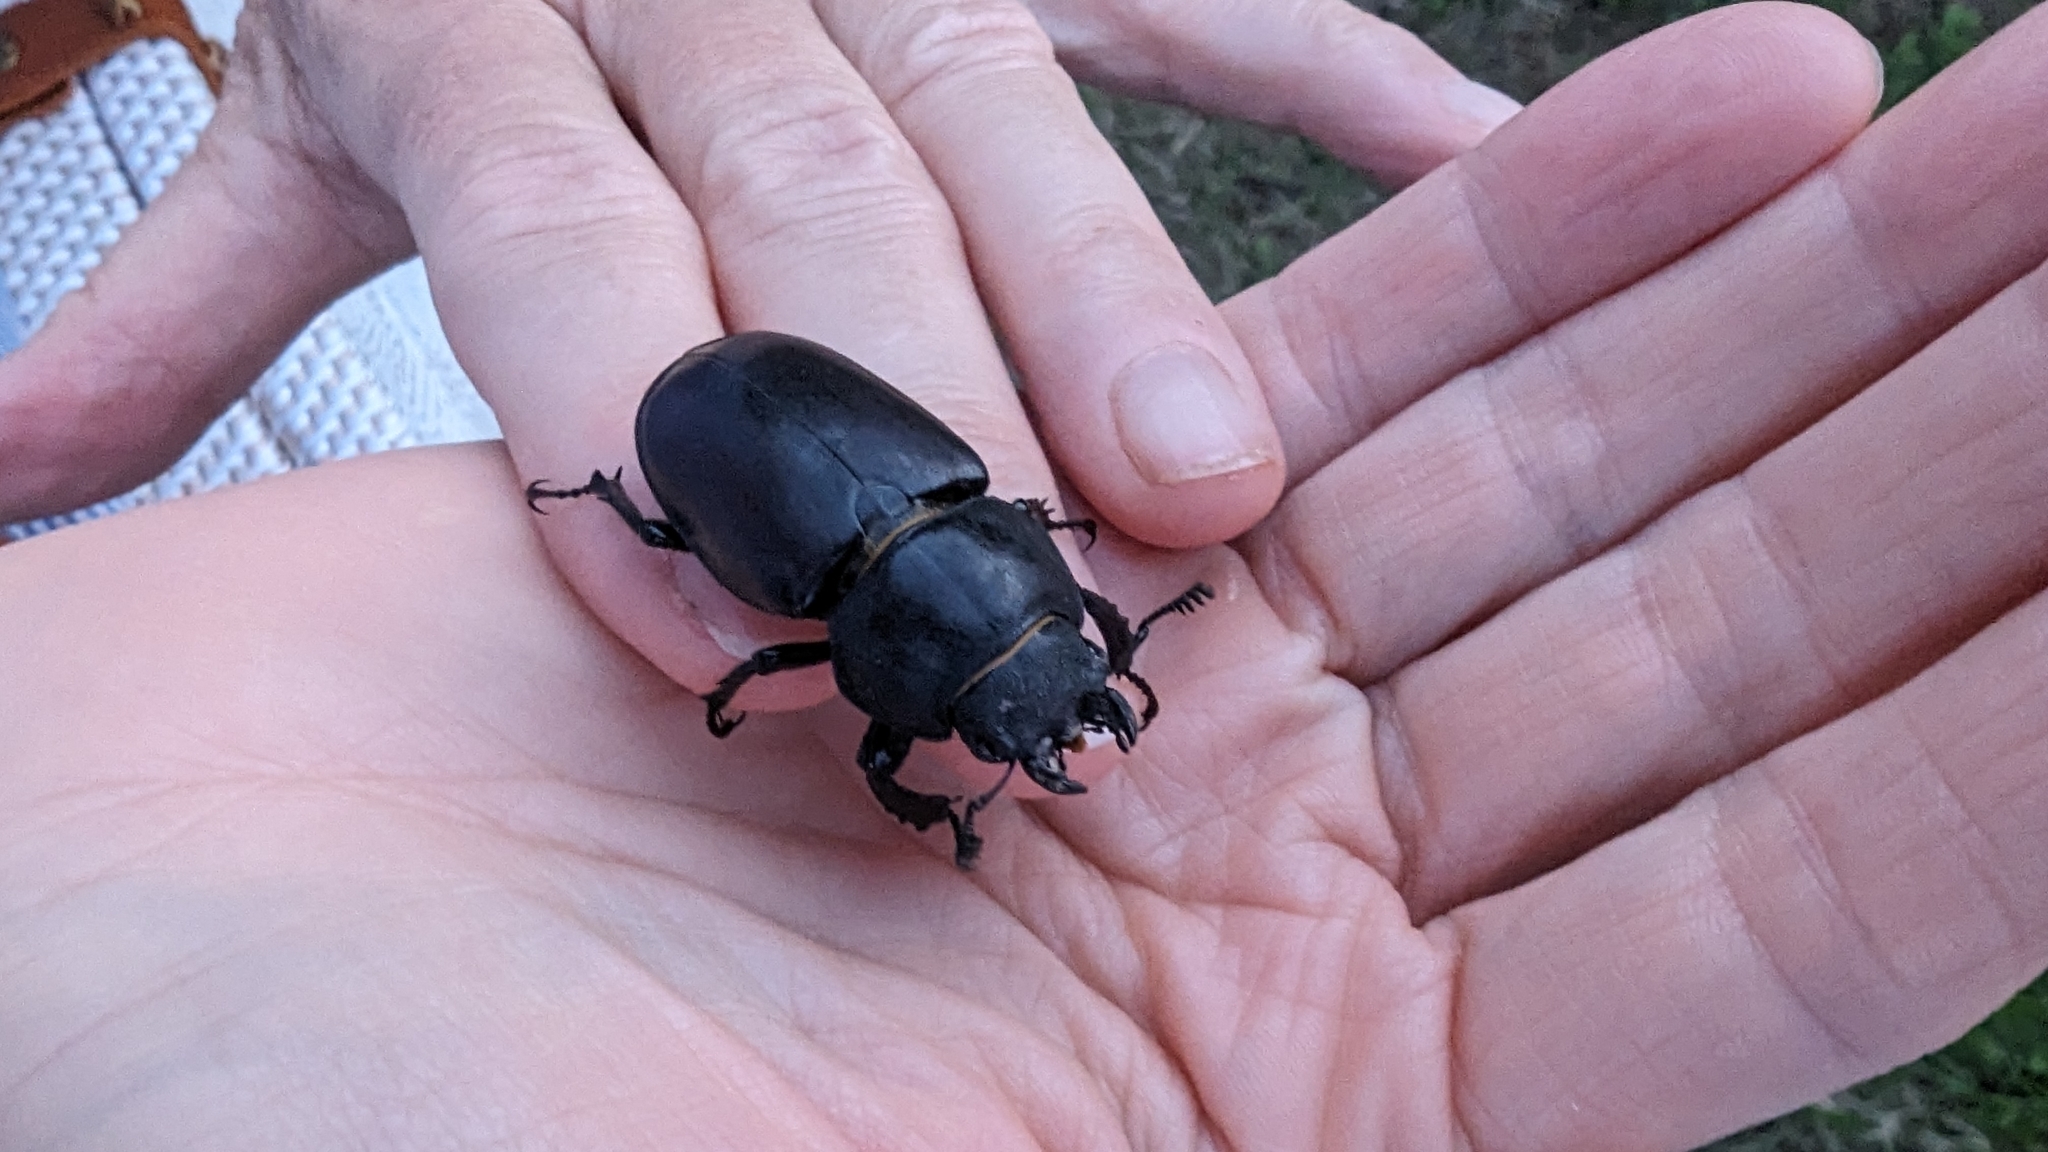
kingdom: Animalia
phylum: Arthropoda
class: Insecta
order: Coleoptera
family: Lucanidae
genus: Lucanus
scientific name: Lucanus cervus
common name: Stag beetle
